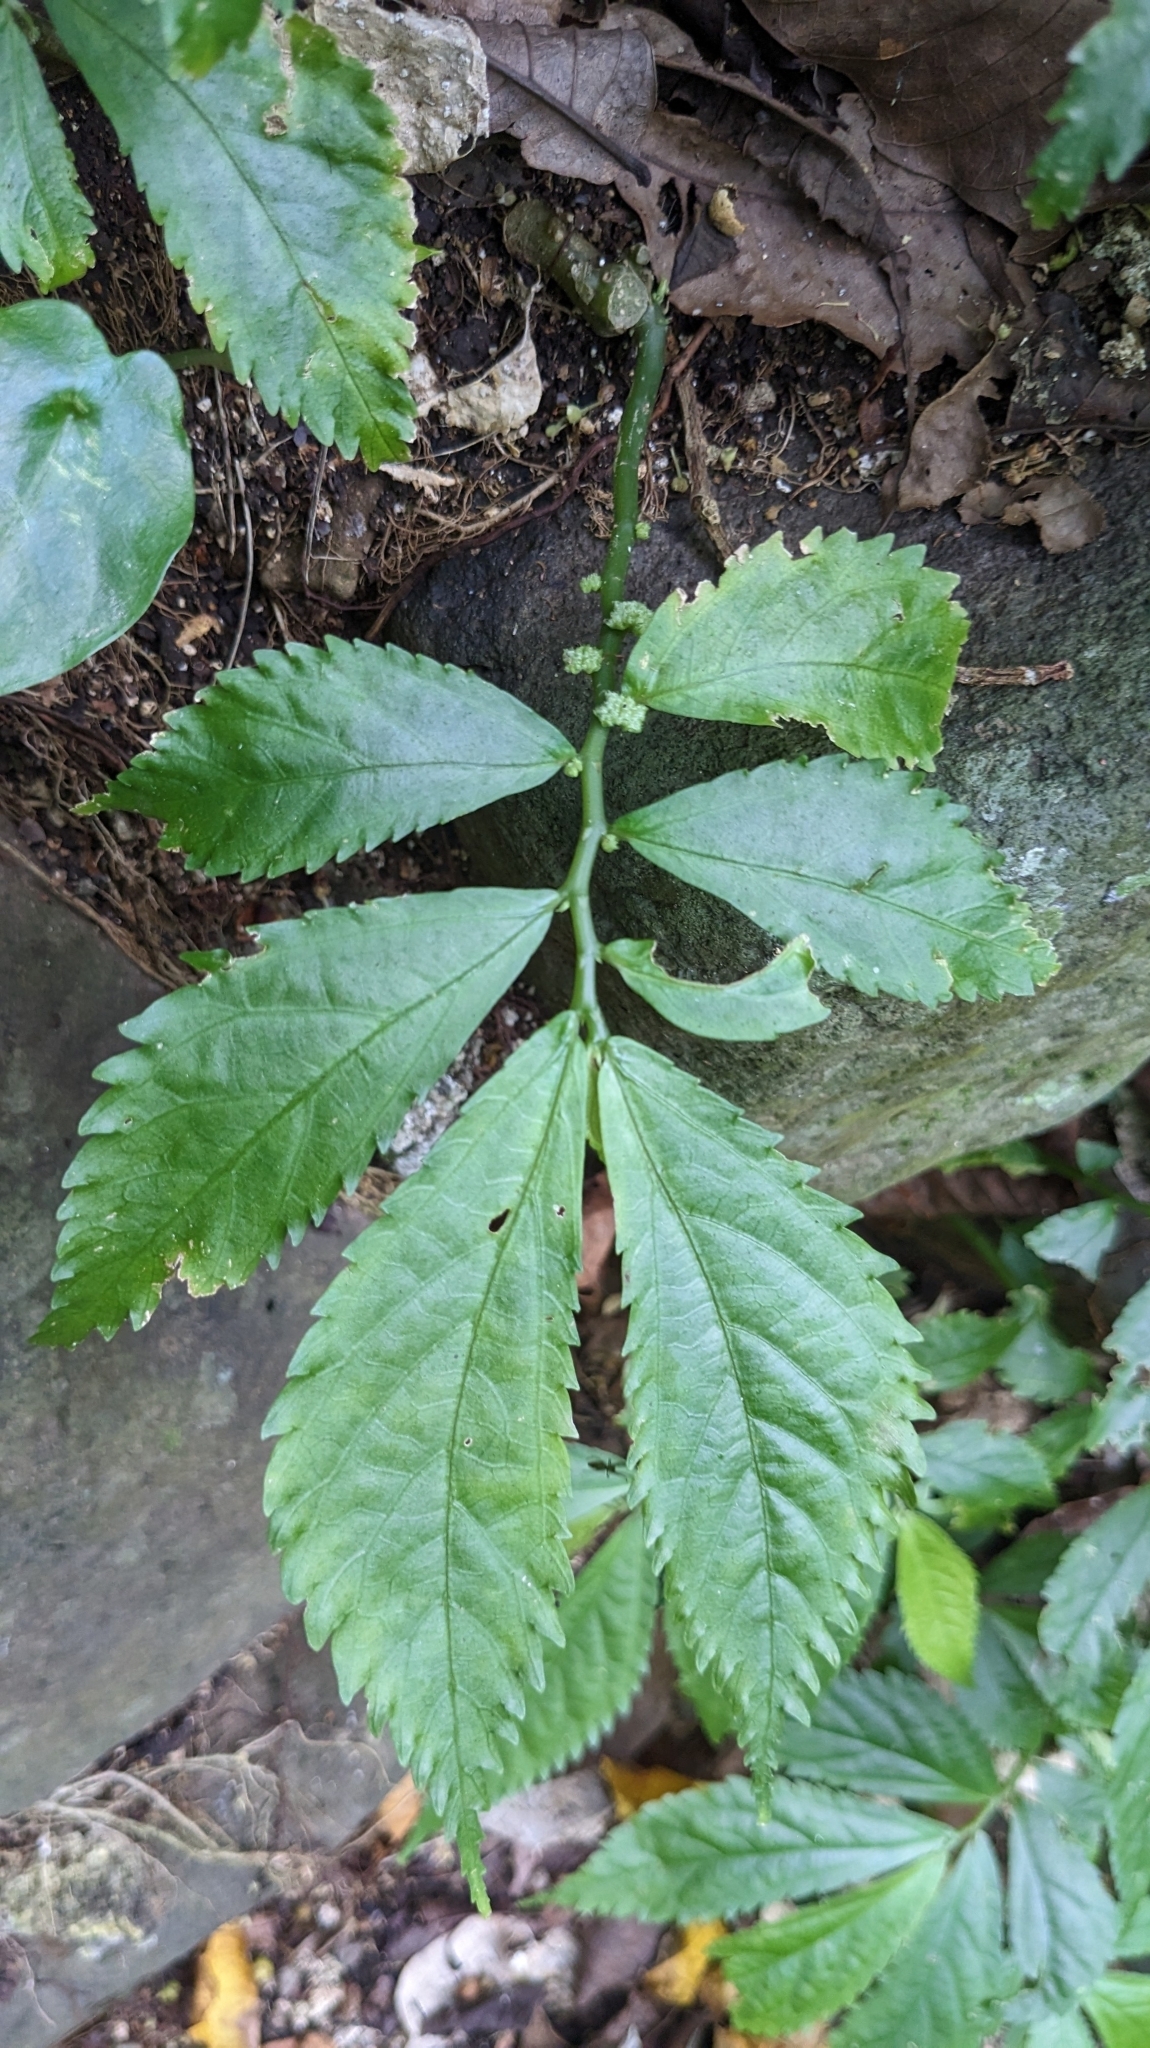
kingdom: Plantae
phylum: Tracheophyta
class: Magnoliopsida
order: Rosales
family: Urticaceae
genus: Elatostema
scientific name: Elatostema acuteserratum
